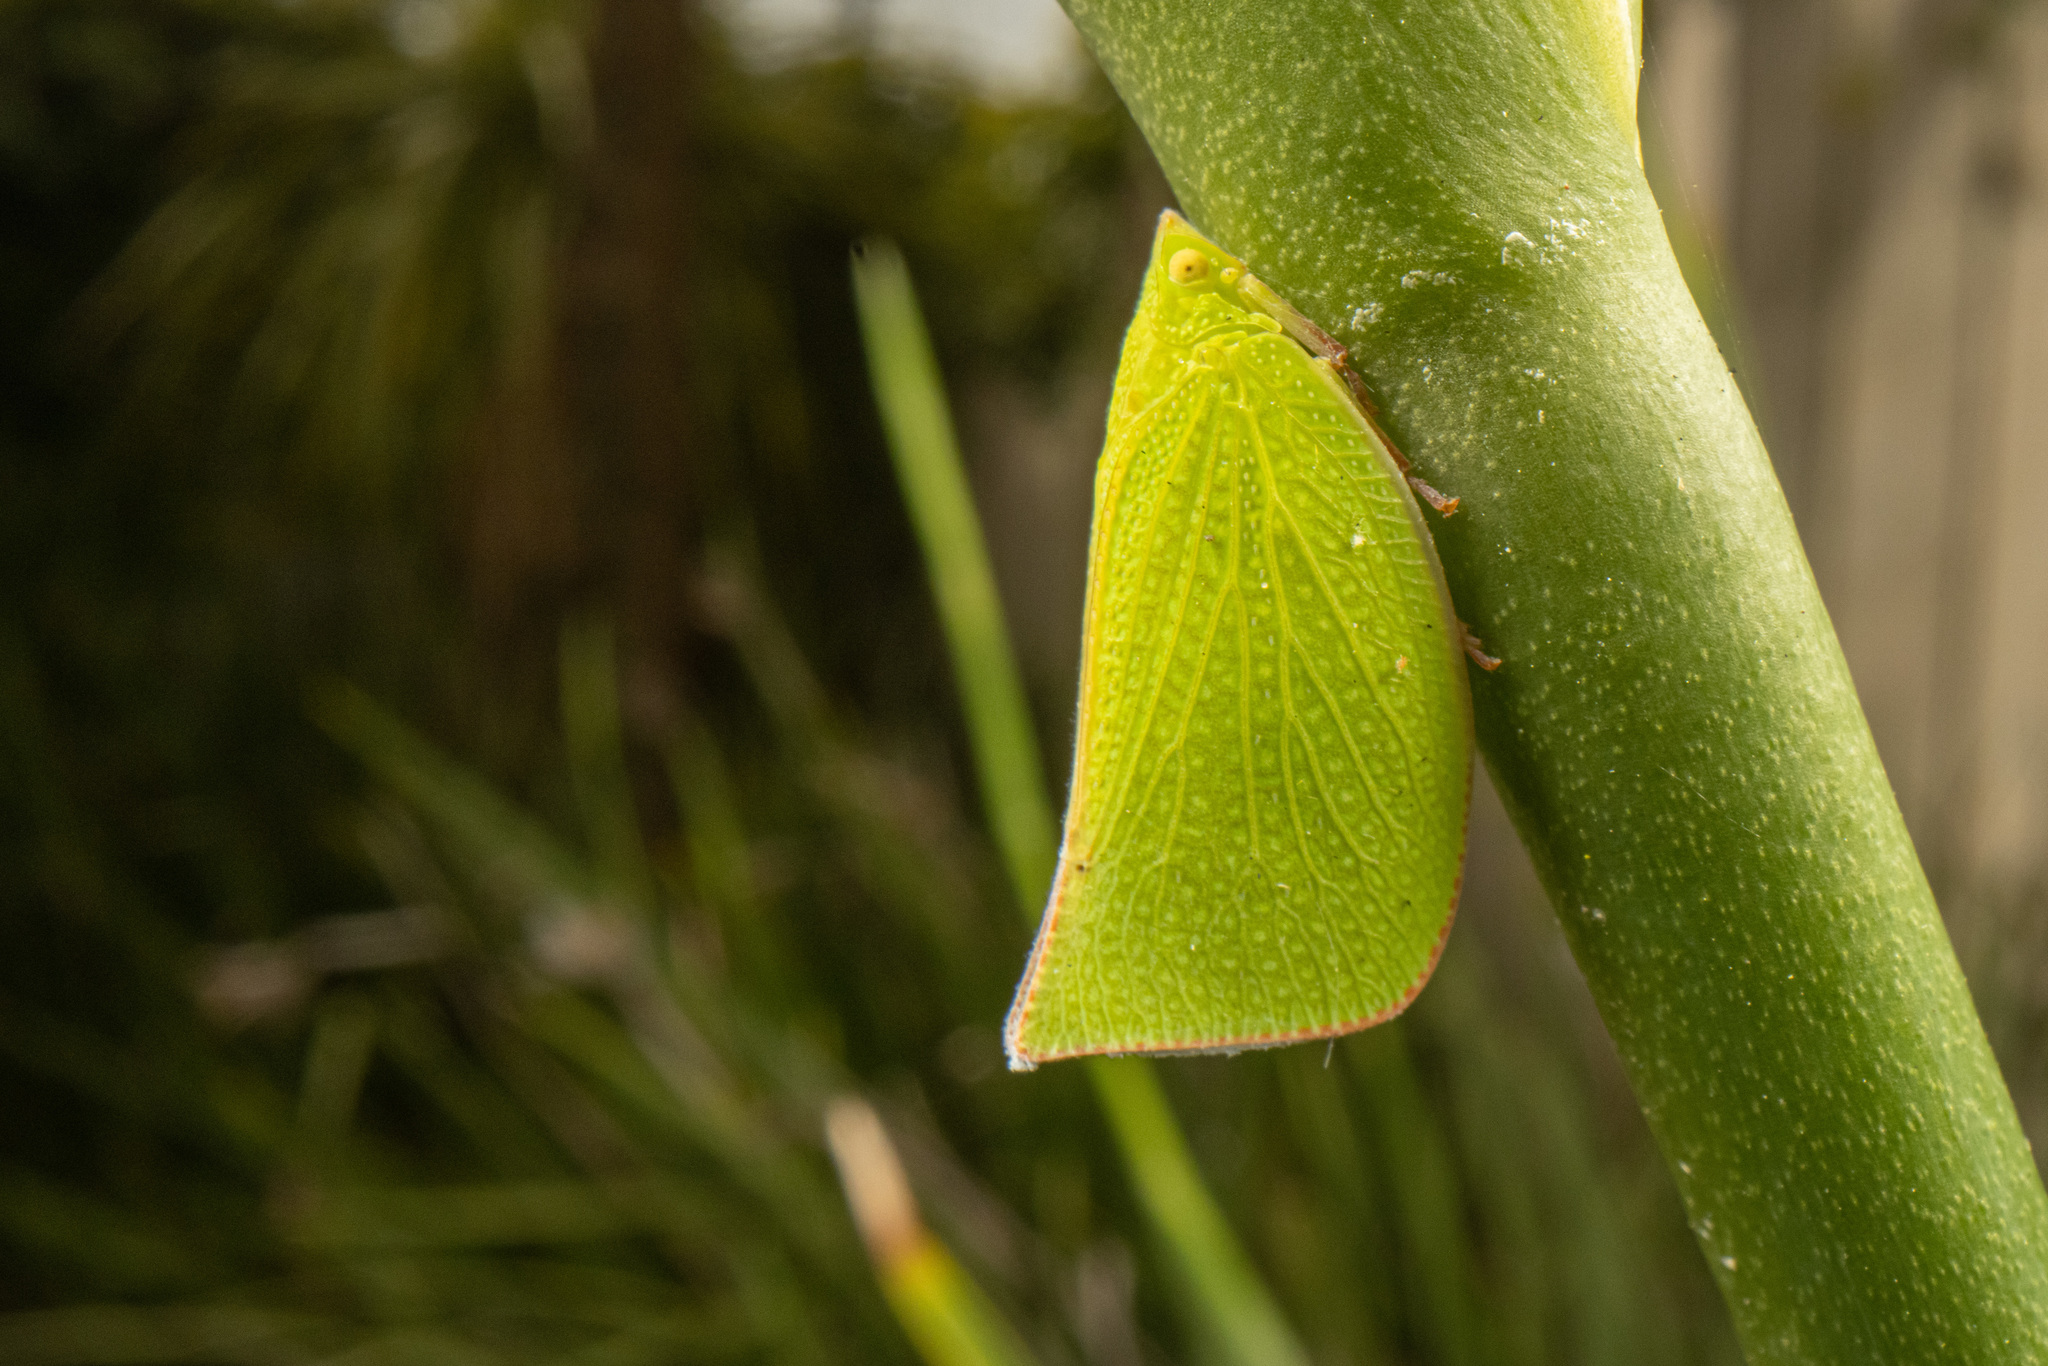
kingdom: Animalia
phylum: Arthropoda
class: Insecta
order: Hemiptera
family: Flatidae
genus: Siphanta
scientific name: Siphanta acuta
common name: Torpedo bug
